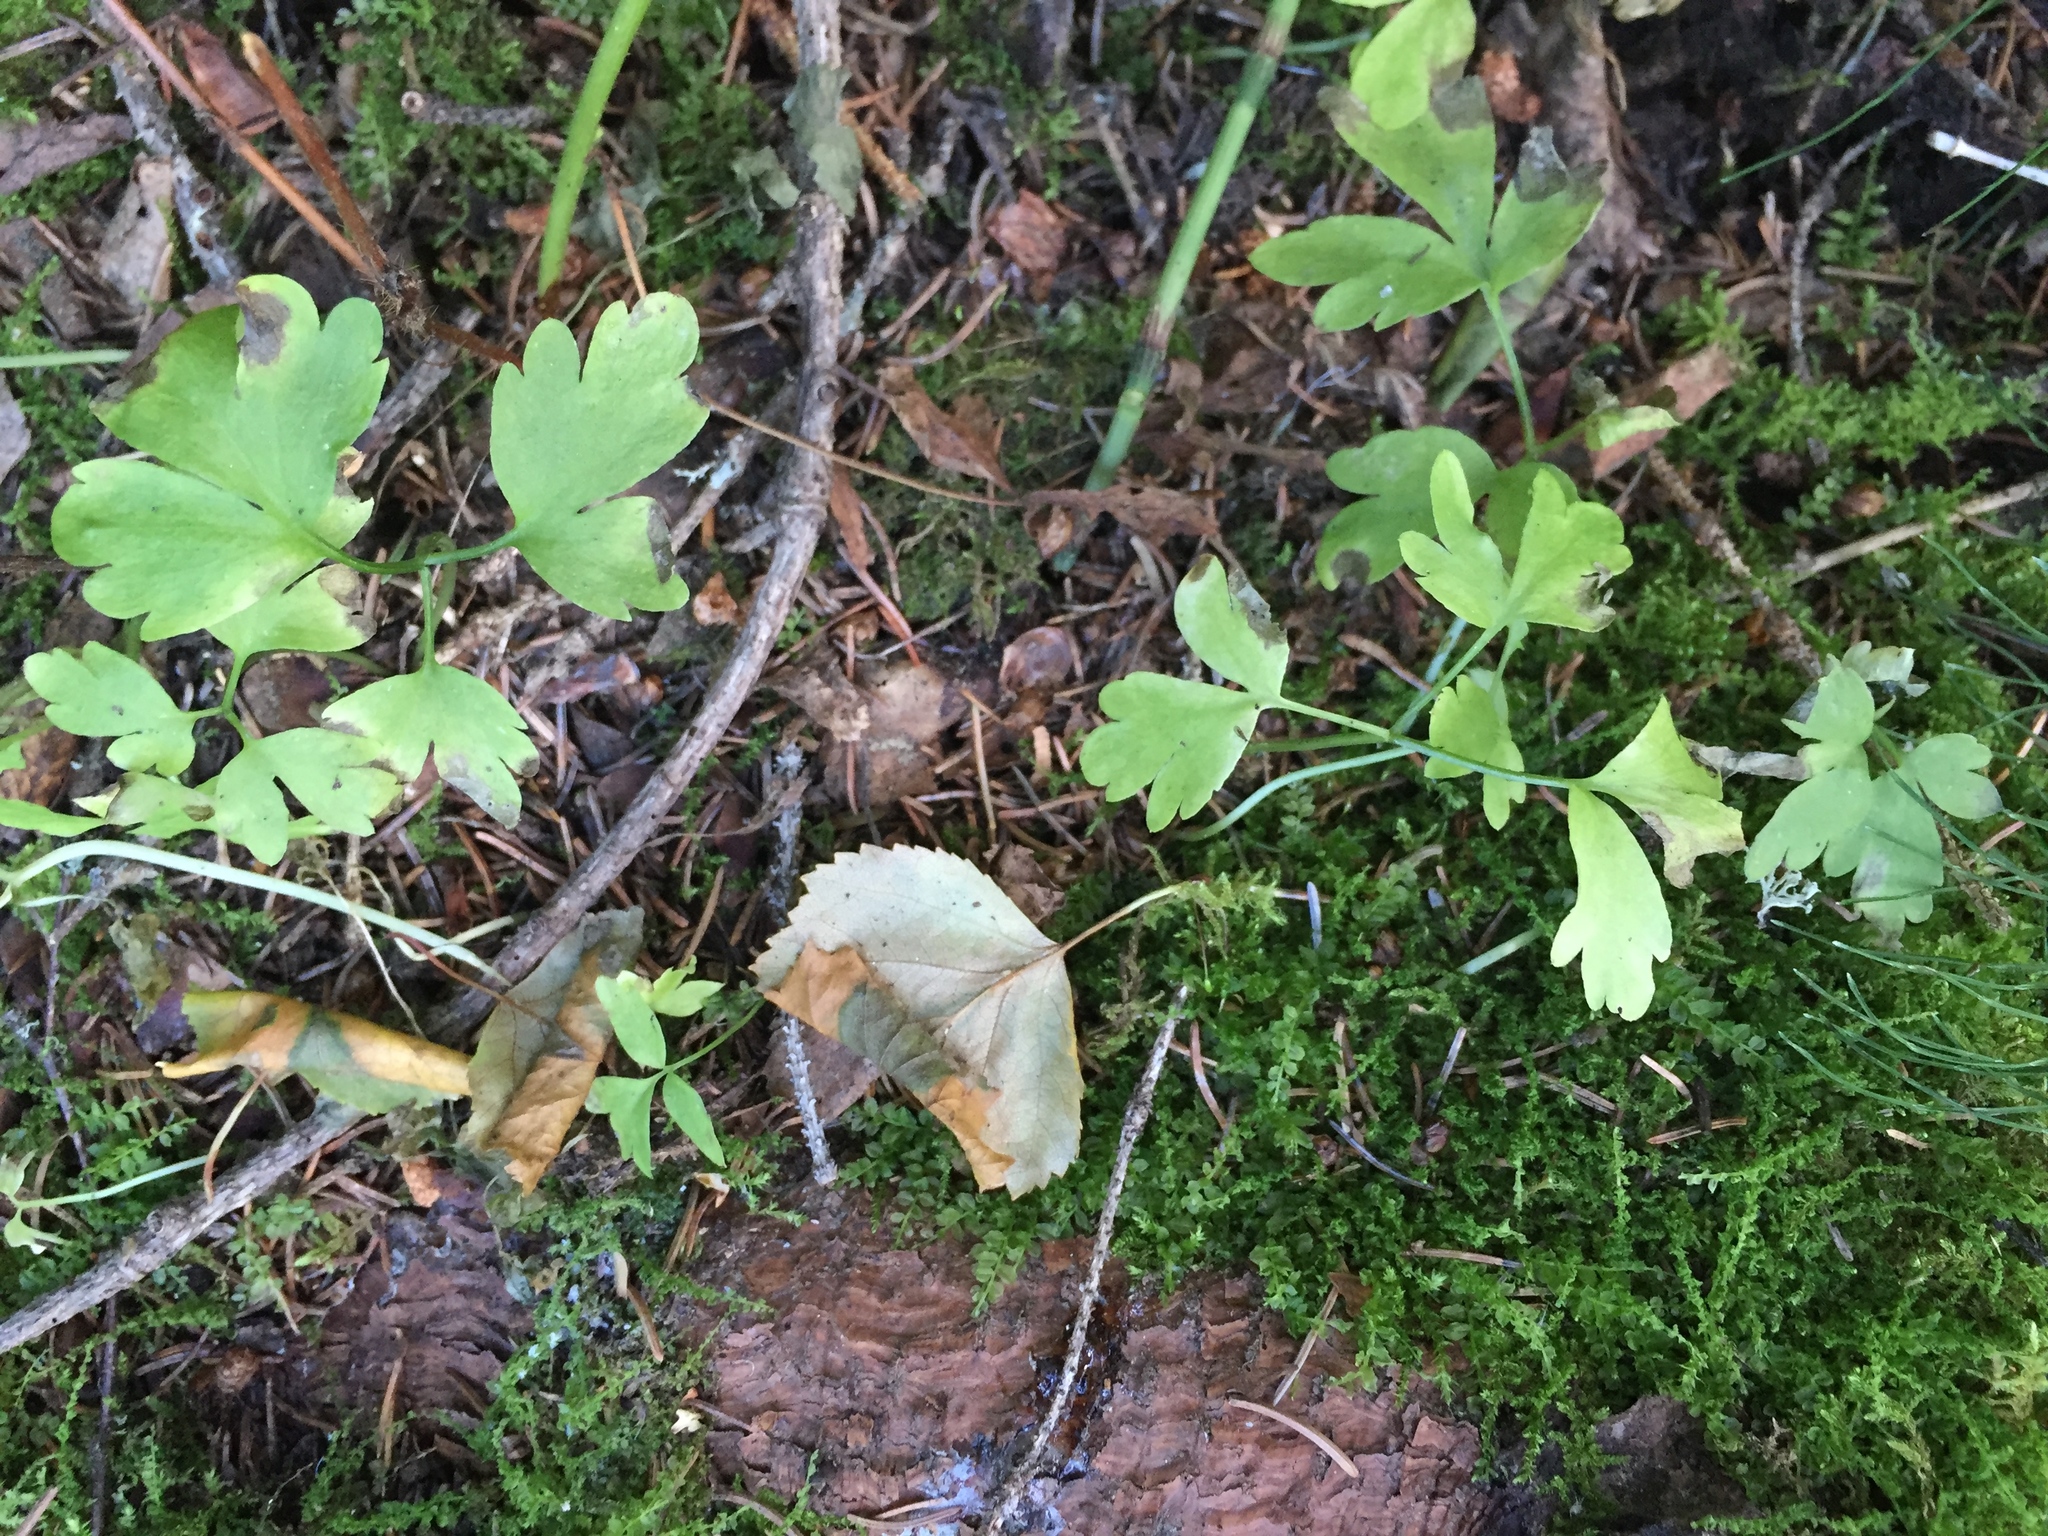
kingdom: Plantae
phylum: Tracheophyta
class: Magnoliopsida
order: Dipsacales
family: Viburnaceae
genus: Adoxa
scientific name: Adoxa moschatellina
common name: Moschatel
